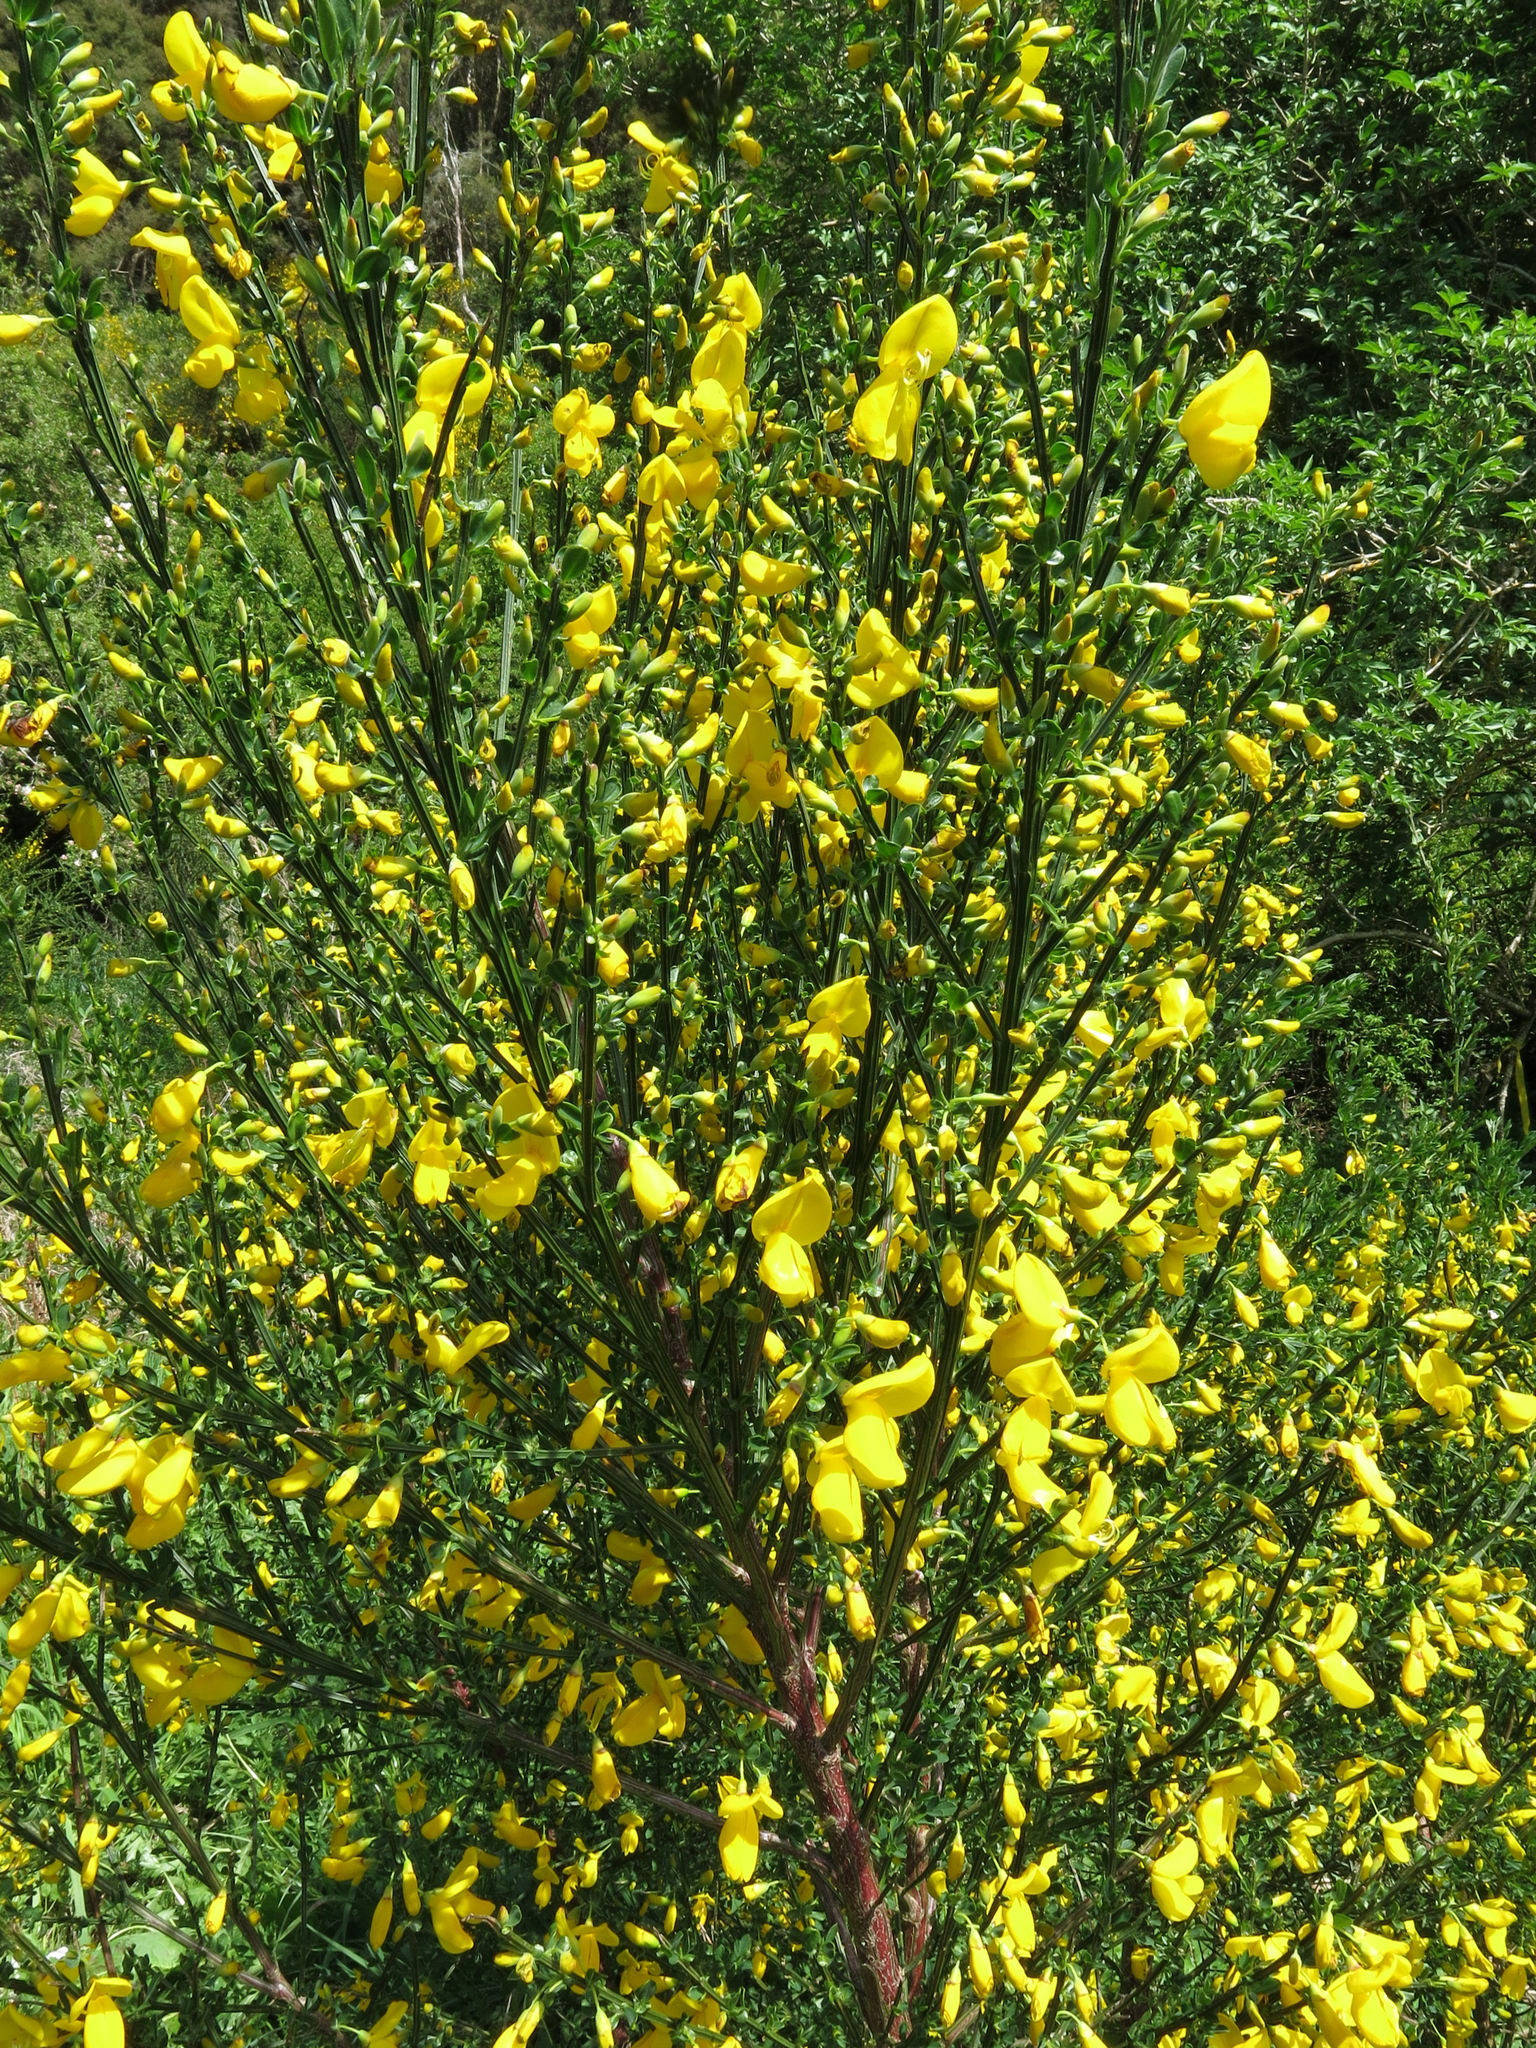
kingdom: Plantae
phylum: Tracheophyta
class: Magnoliopsida
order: Fabales
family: Fabaceae
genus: Cytisus
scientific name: Cytisus scoparius
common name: Scotch broom
